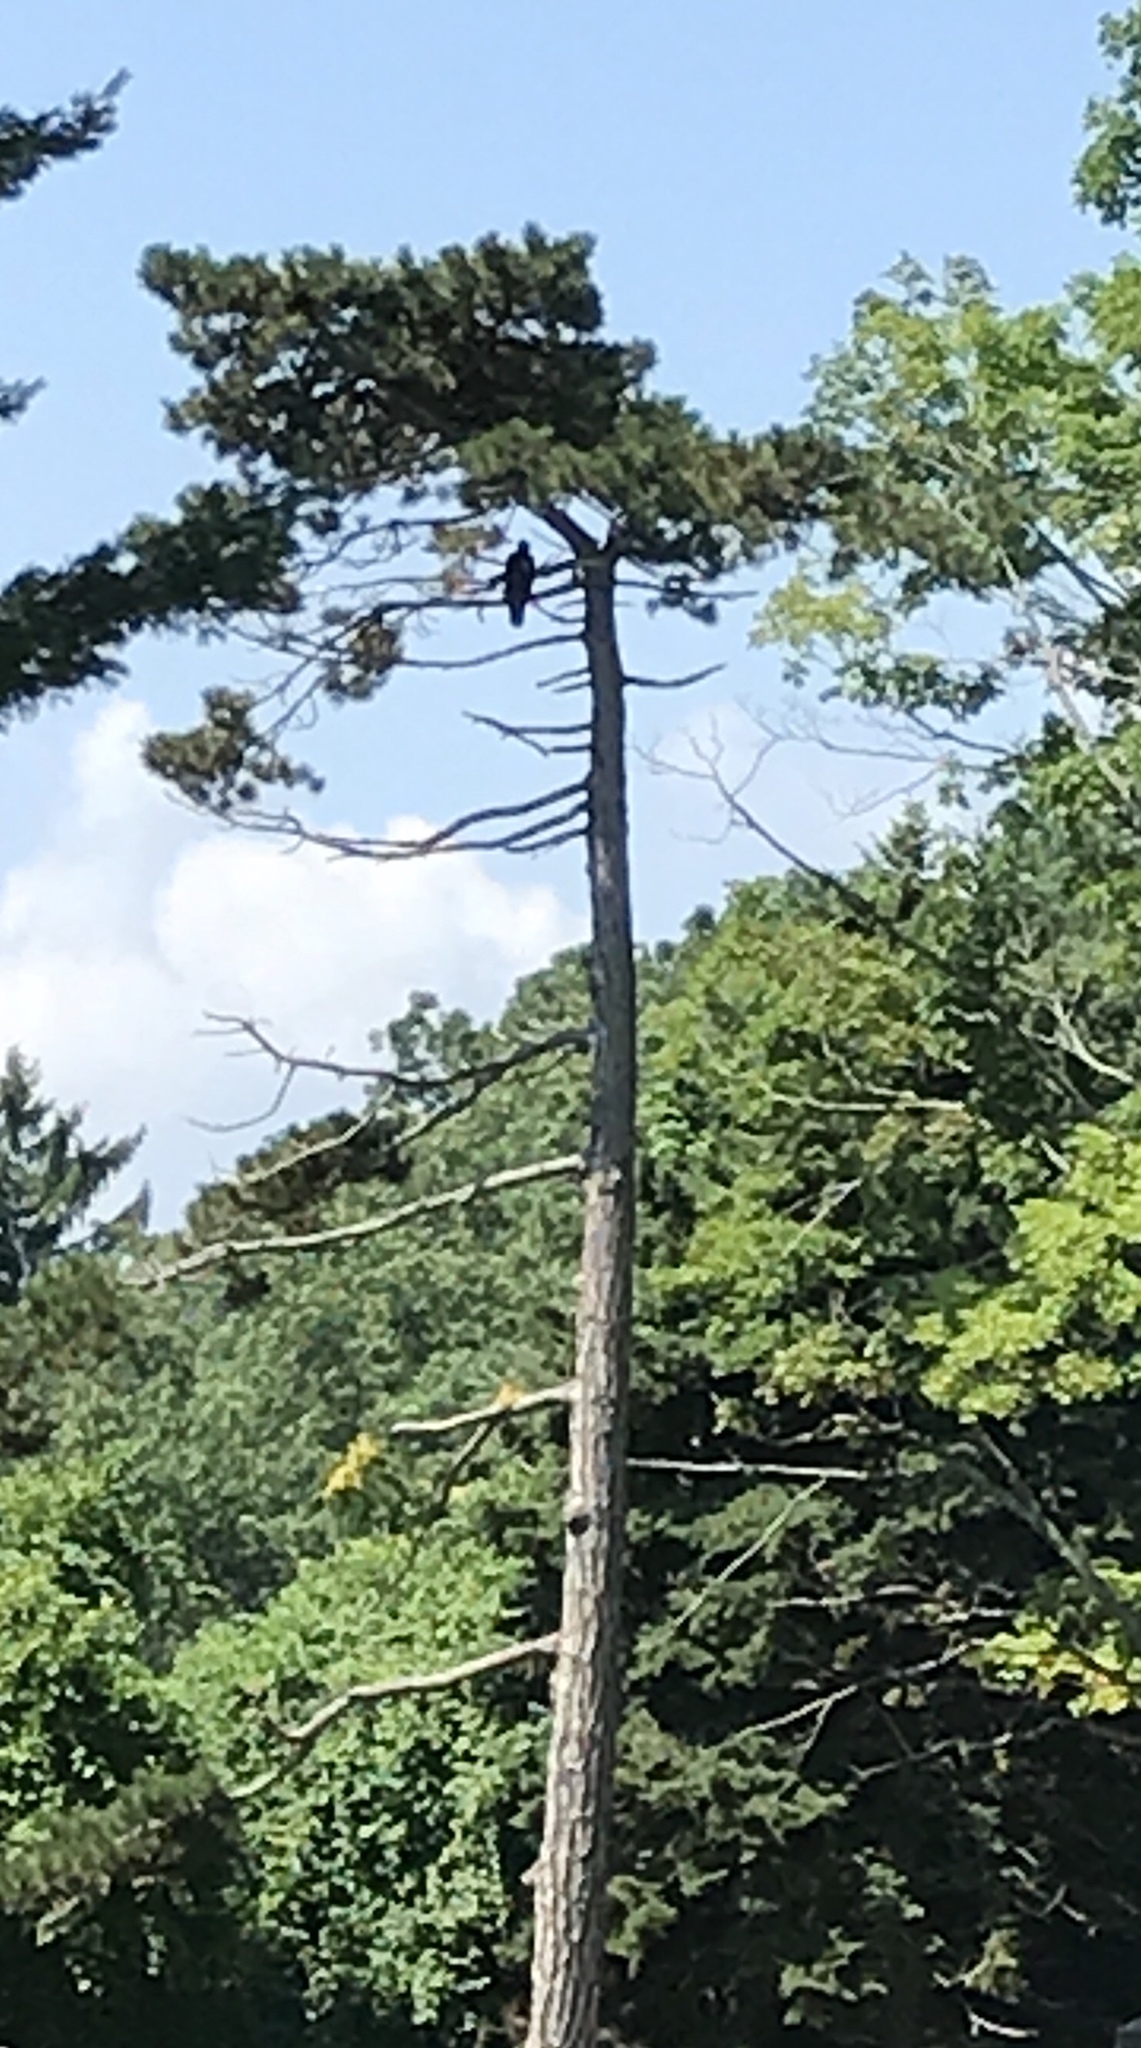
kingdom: Animalia
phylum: Chordata
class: Aves
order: Accipitriformes
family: Accipitridae
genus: Haliaeetus
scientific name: Haliaeetus leucocephalus
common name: Bald eagle
